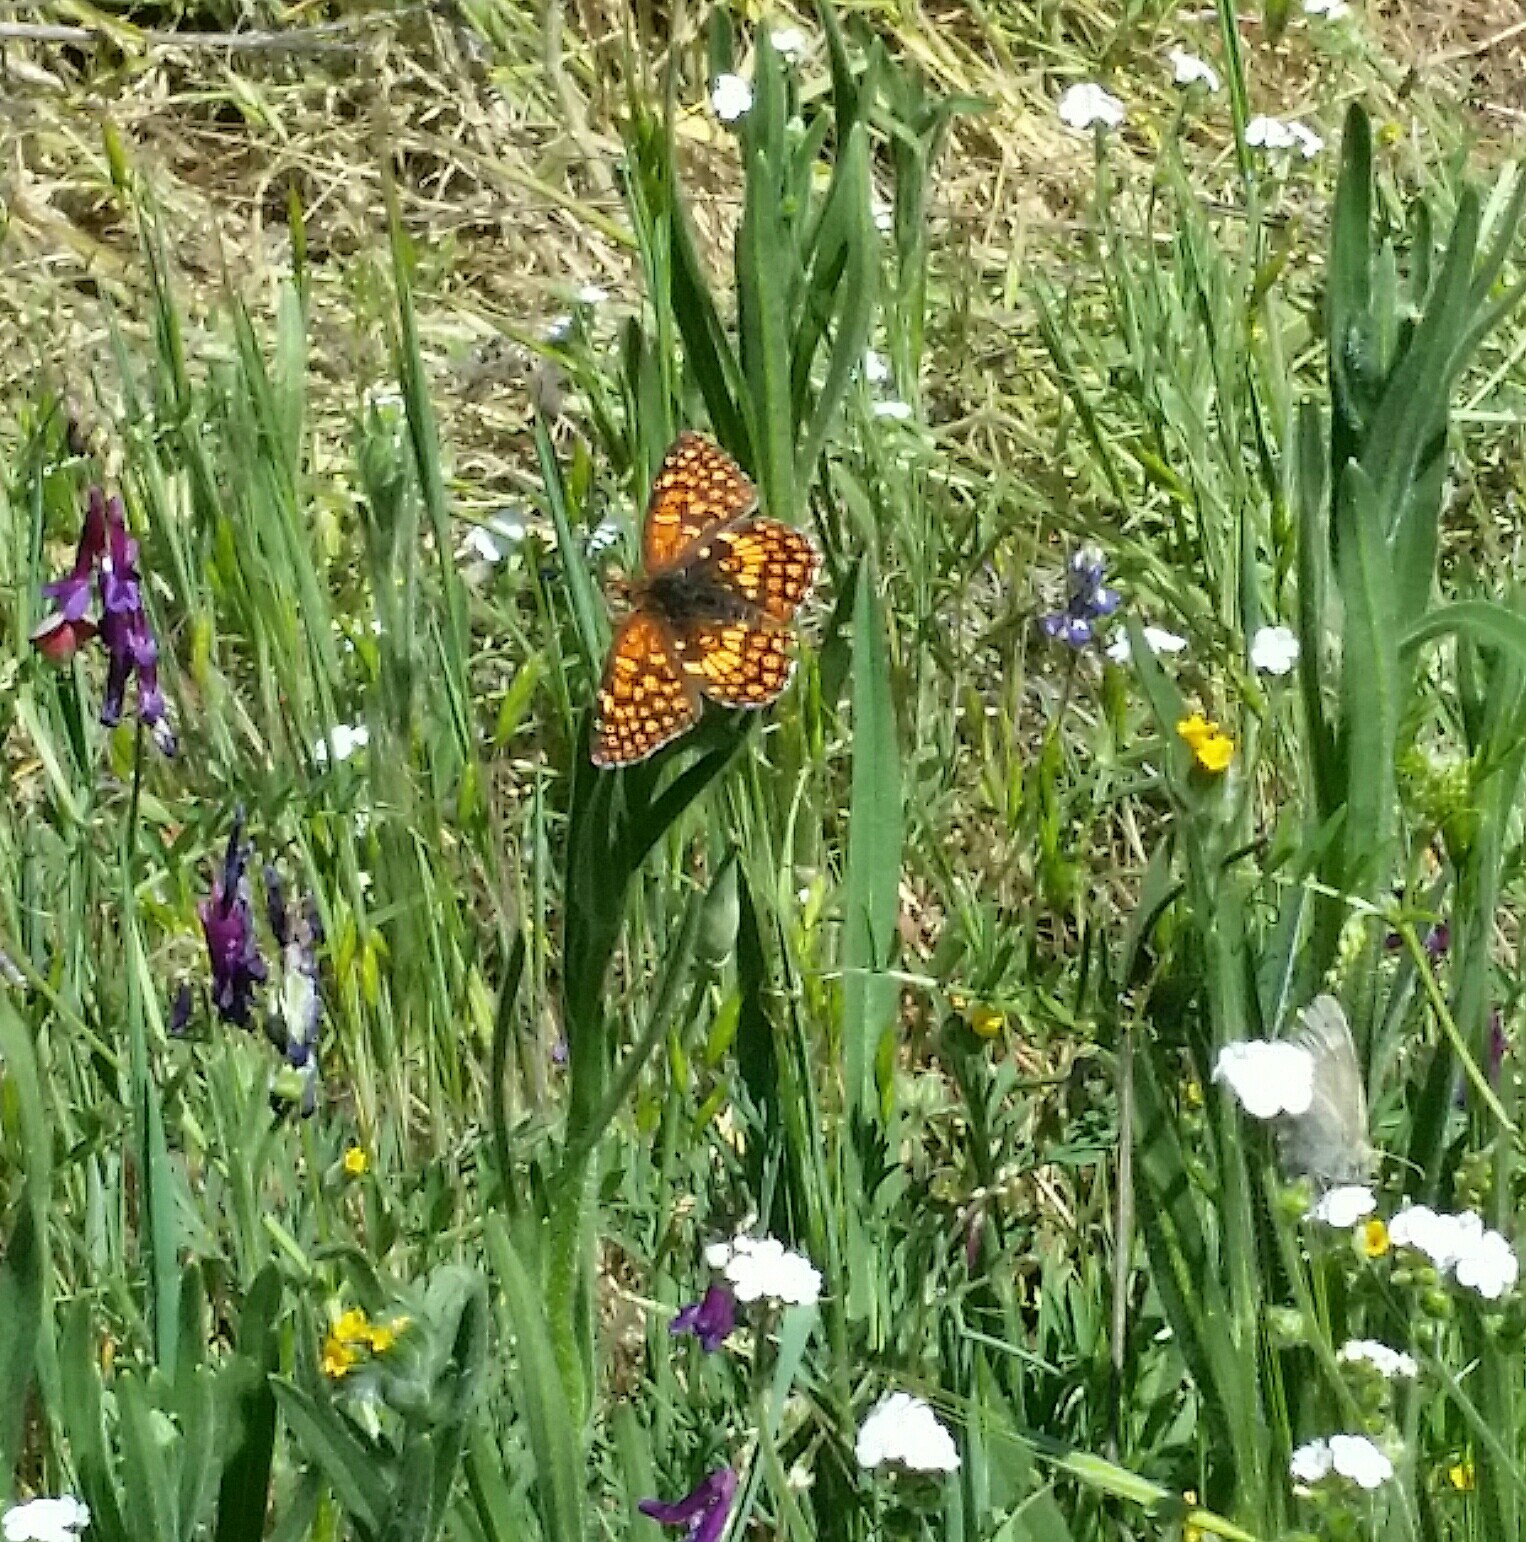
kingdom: Animalia
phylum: Arthropoda
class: Insecta
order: Lepidoptera
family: Nymphalidae
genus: Chlosyne
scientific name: Chlosyne palla
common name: Northern checkerspot
